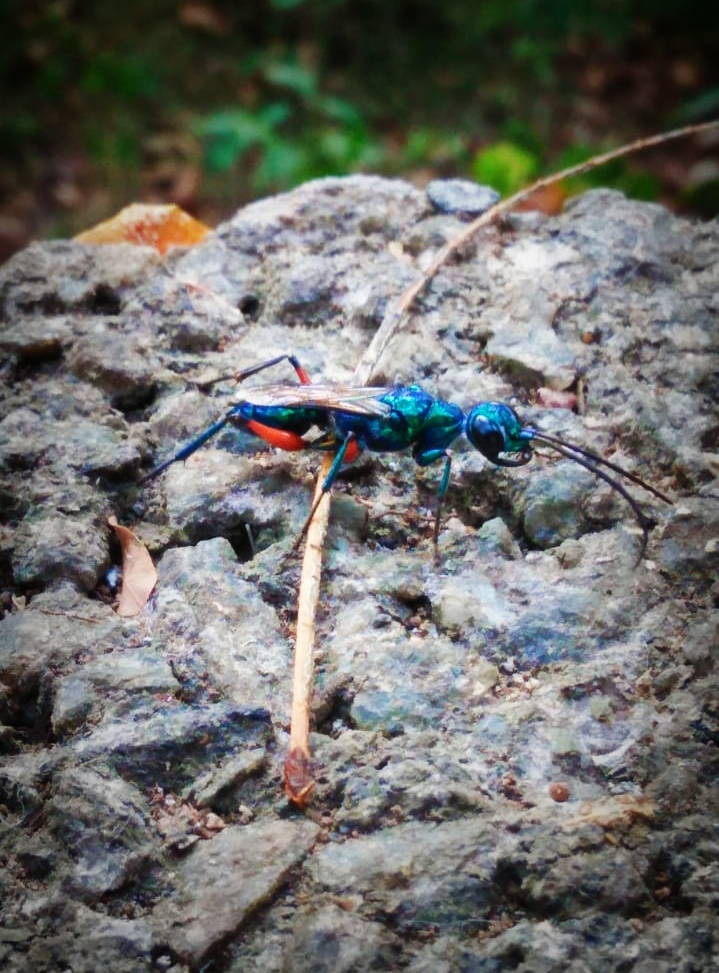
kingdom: Animalia
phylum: Arthropoda
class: Insecta
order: Hymenoptera
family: Ampulicidae
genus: Ampulex
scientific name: Ampulex compressa
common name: Emerald cockroach wasp
